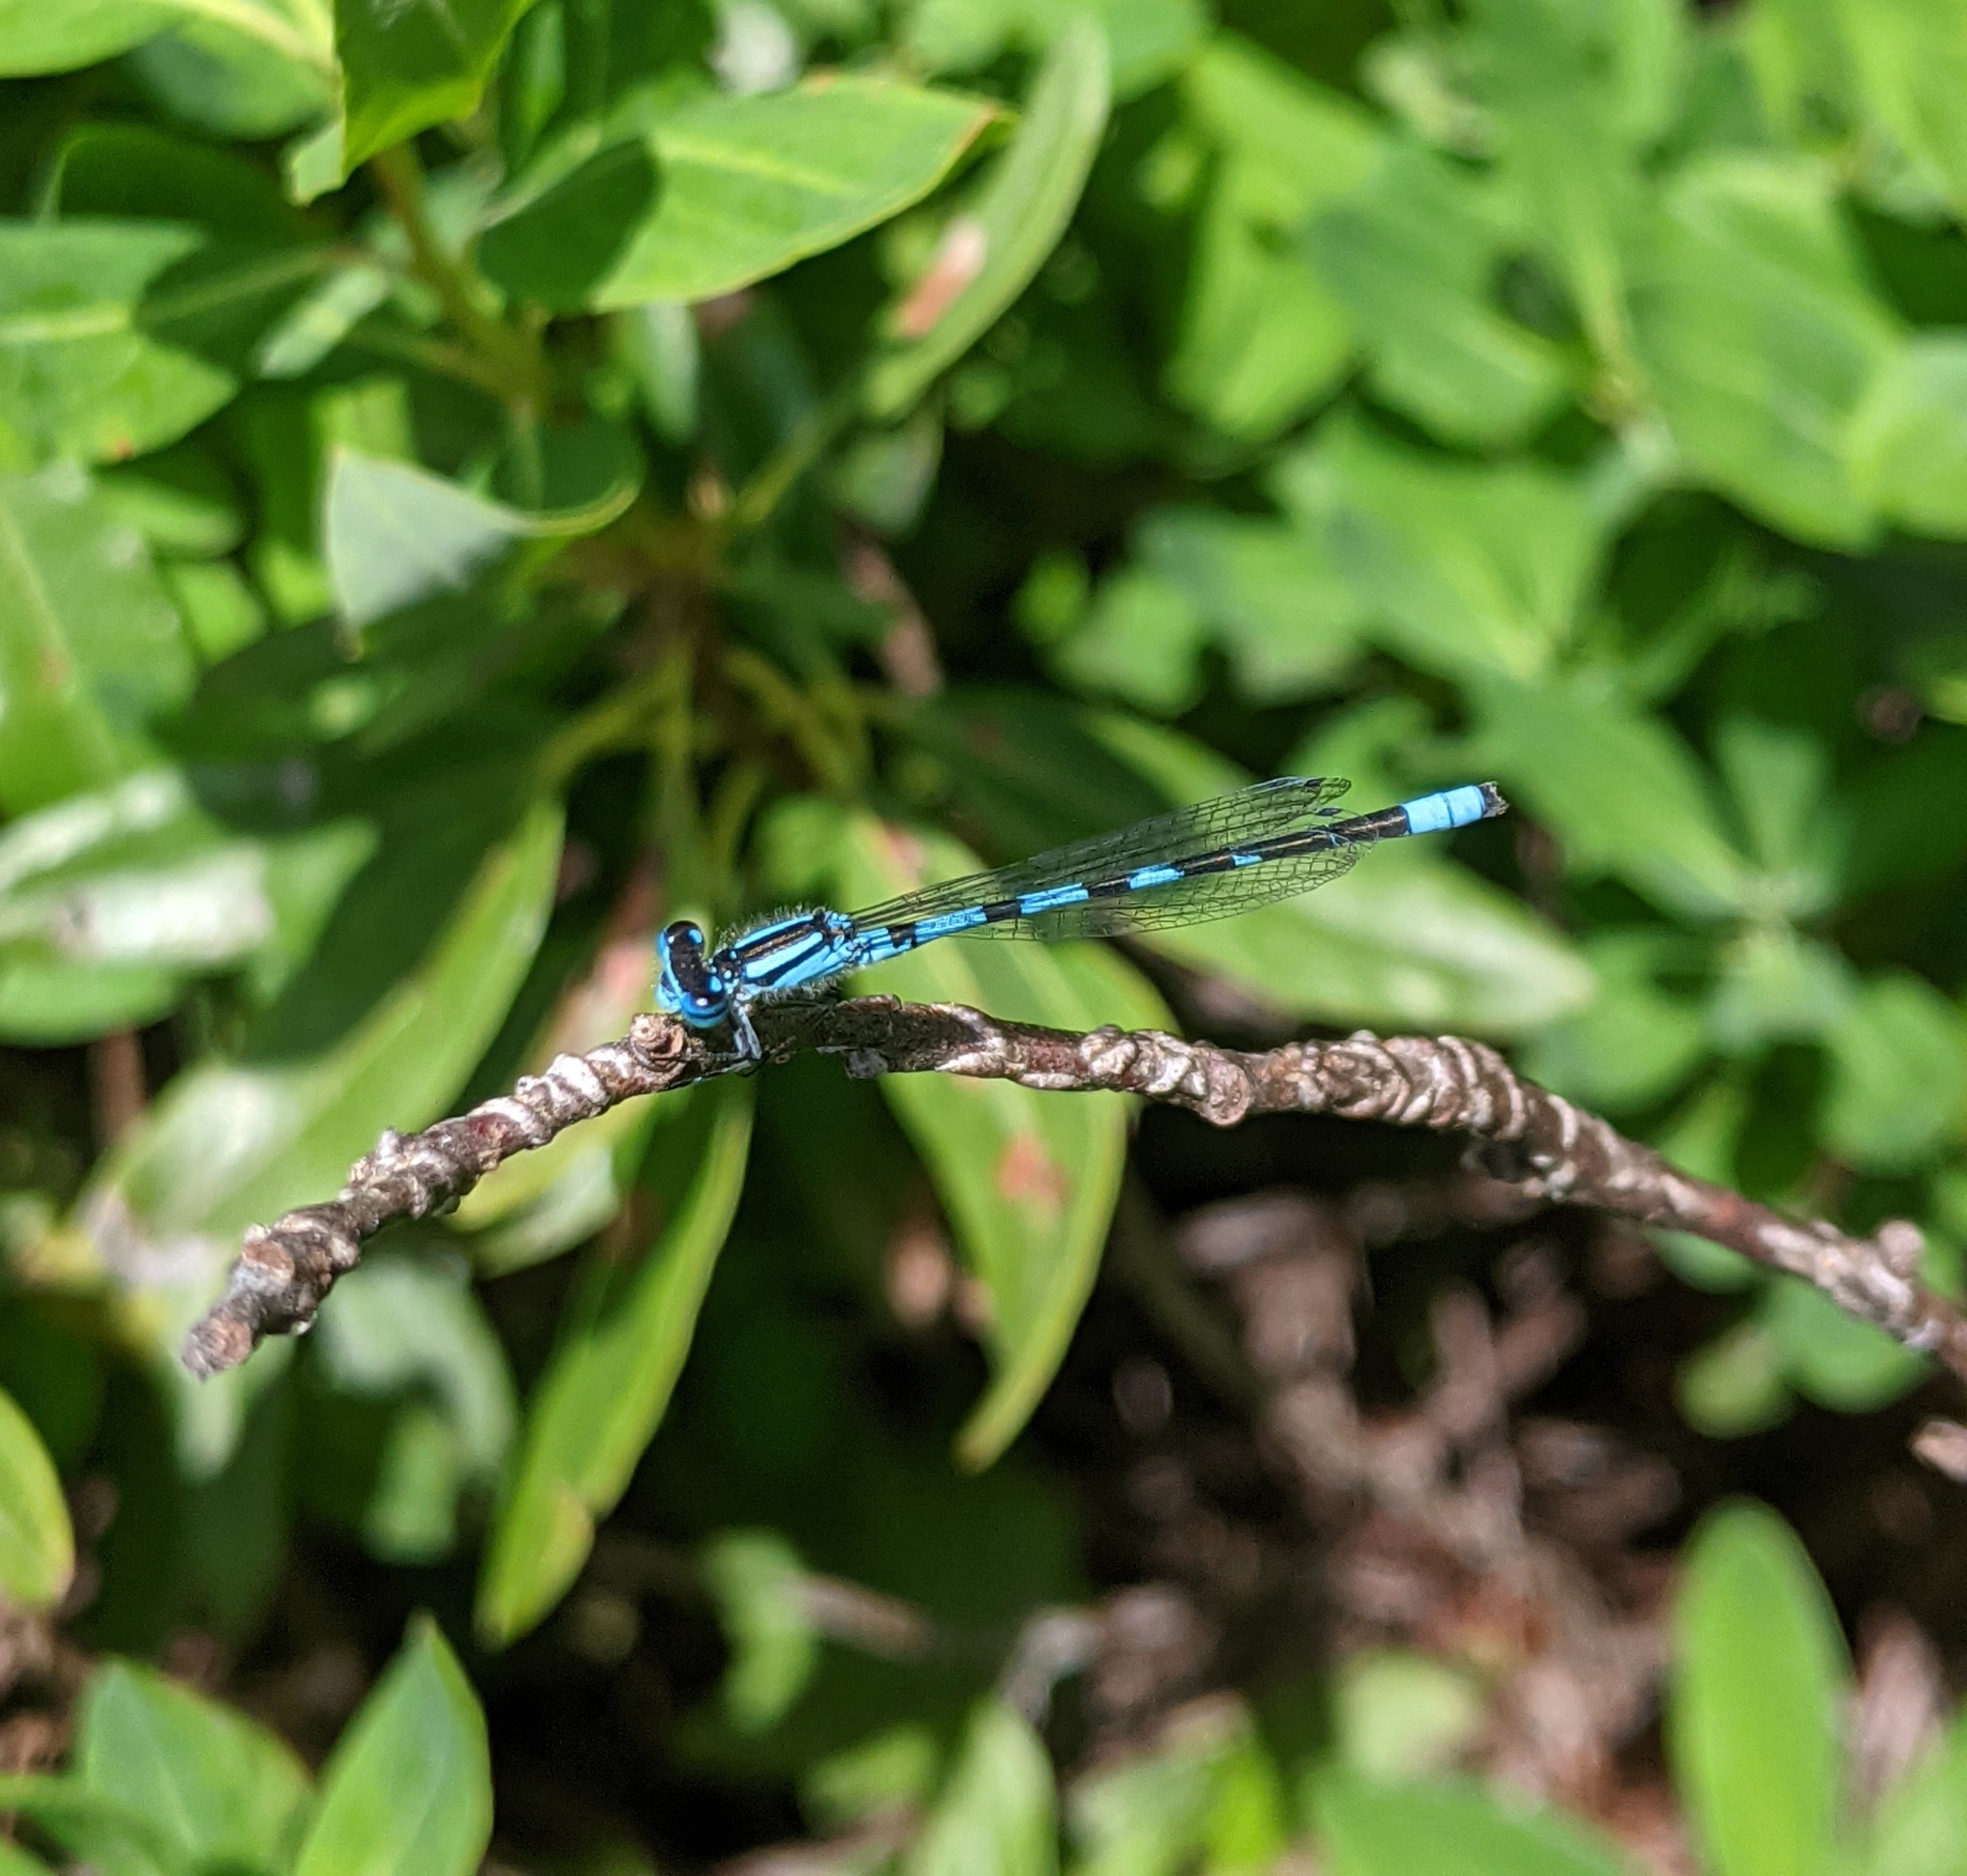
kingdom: Animalia
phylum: Arthropoda
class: Insecta
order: Odonata
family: Coenagrionidae
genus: Enallagma
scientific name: Enallagma carunculatum
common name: Tule bluet
